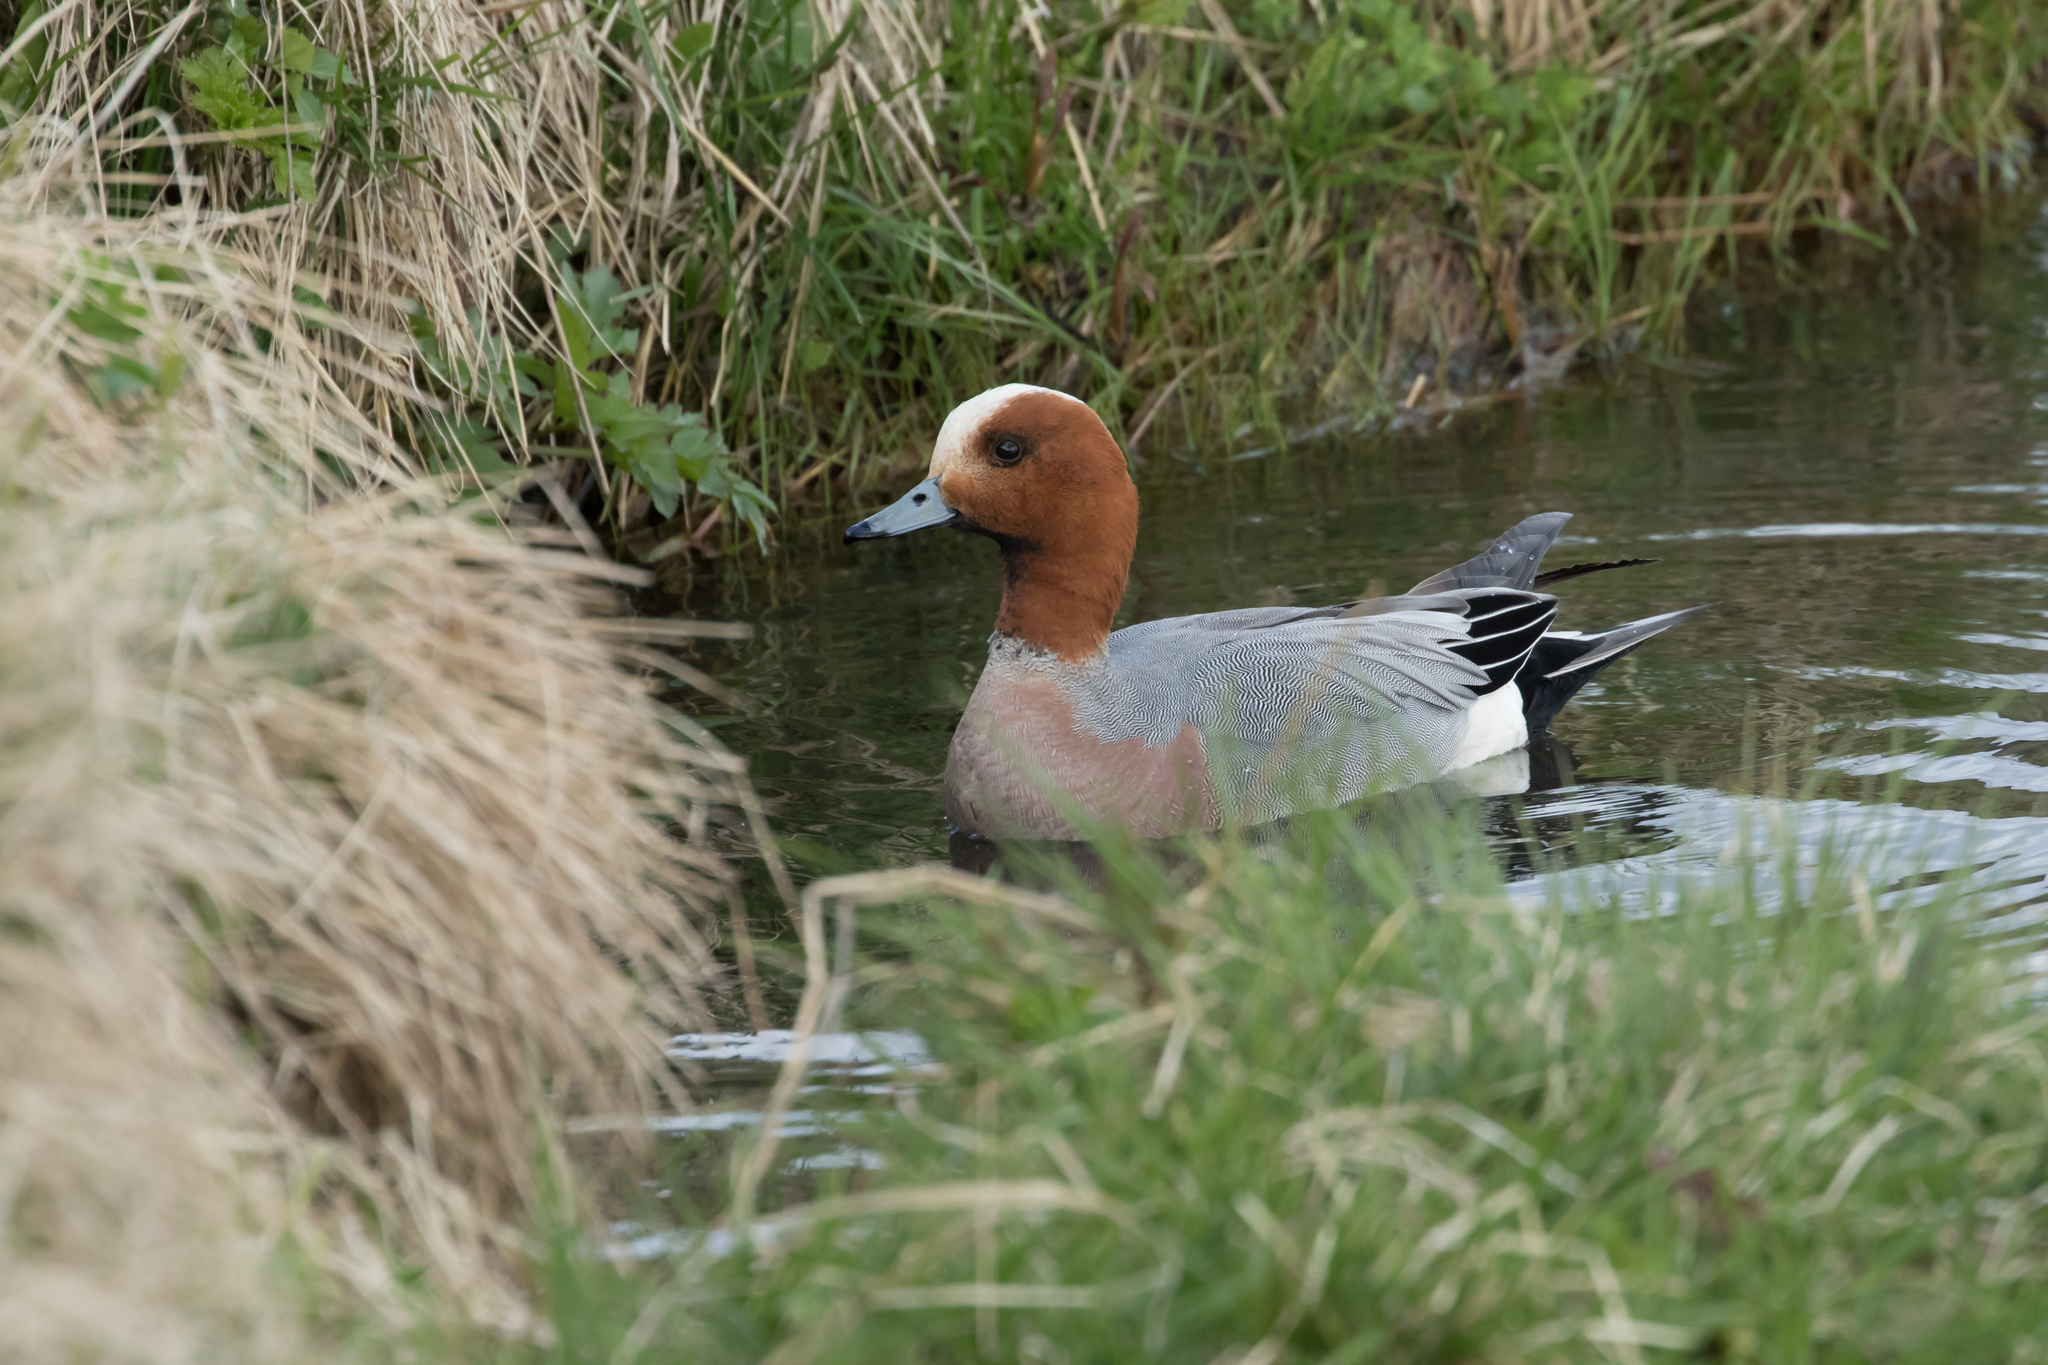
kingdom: Animalia
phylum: Chordata
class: Aves
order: Anseriformes
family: Anatidae
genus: Mareca
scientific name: Mareca penelope
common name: Eurasian wigeon
